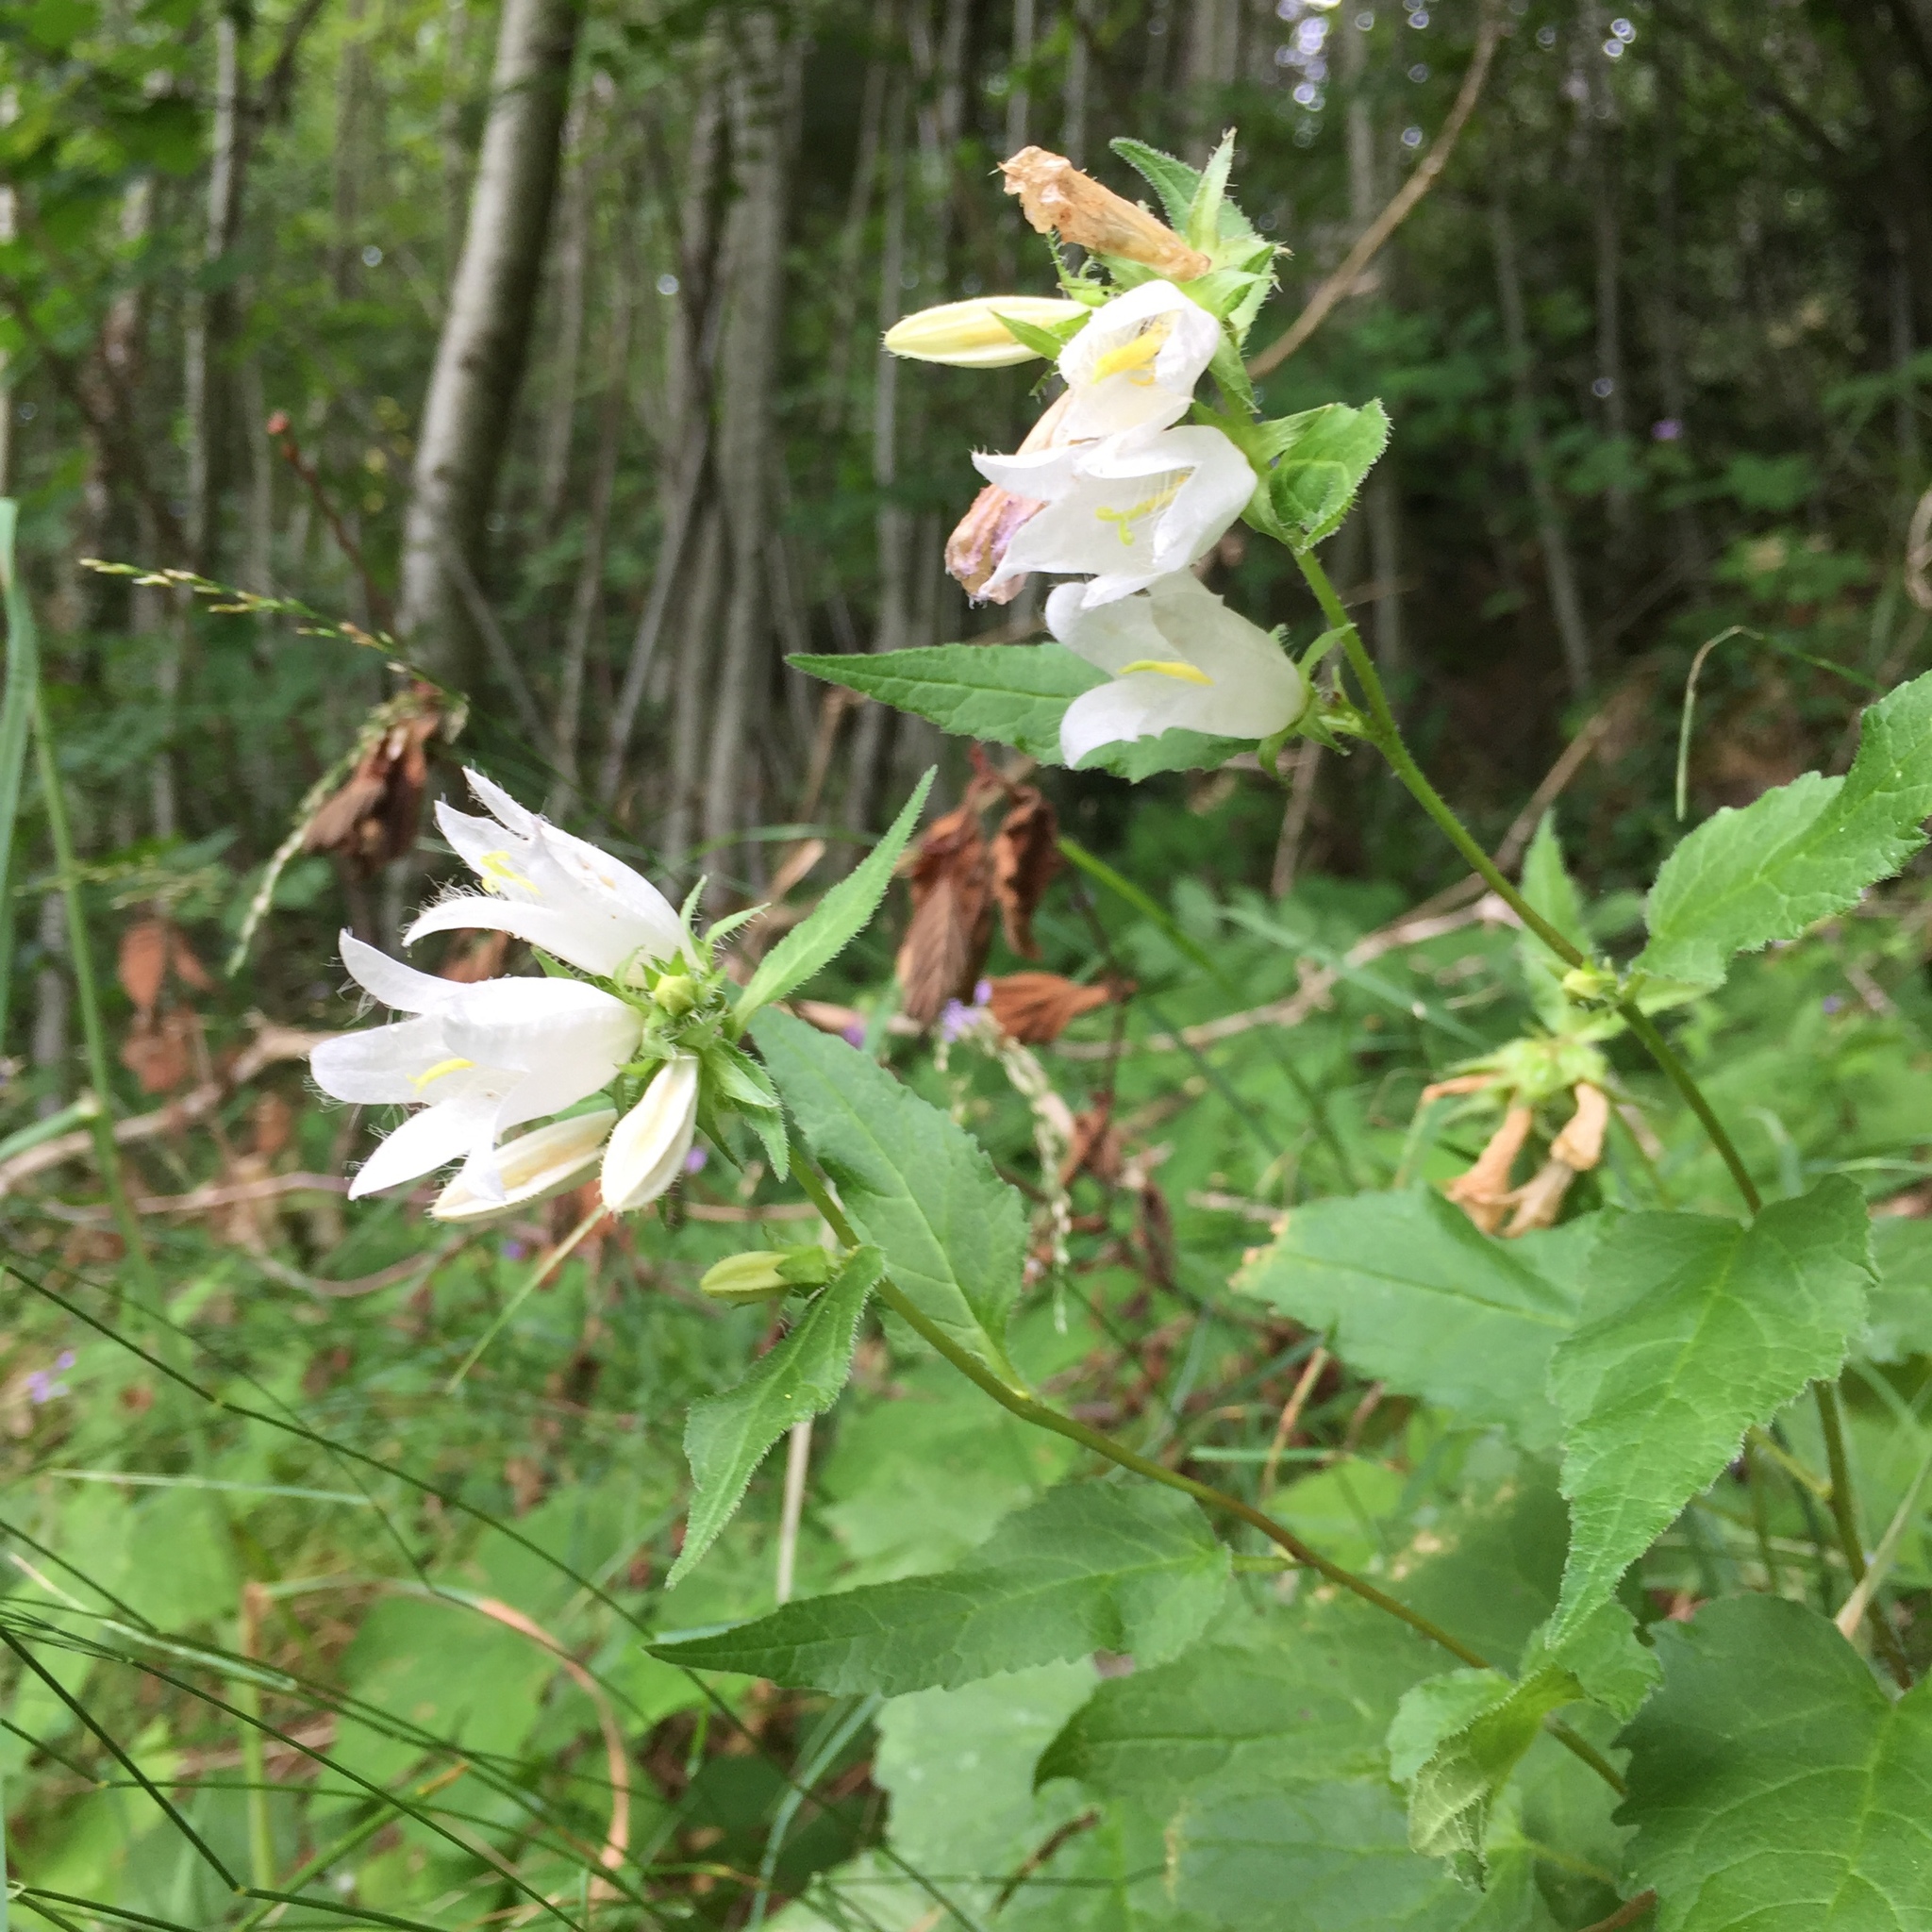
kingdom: Plantae
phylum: Tracheophyta
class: Magnoliopsida
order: Asterales
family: Campanulaceae
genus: Campanula
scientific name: Campanula trachelium
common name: Nettle-leaved bellflower
